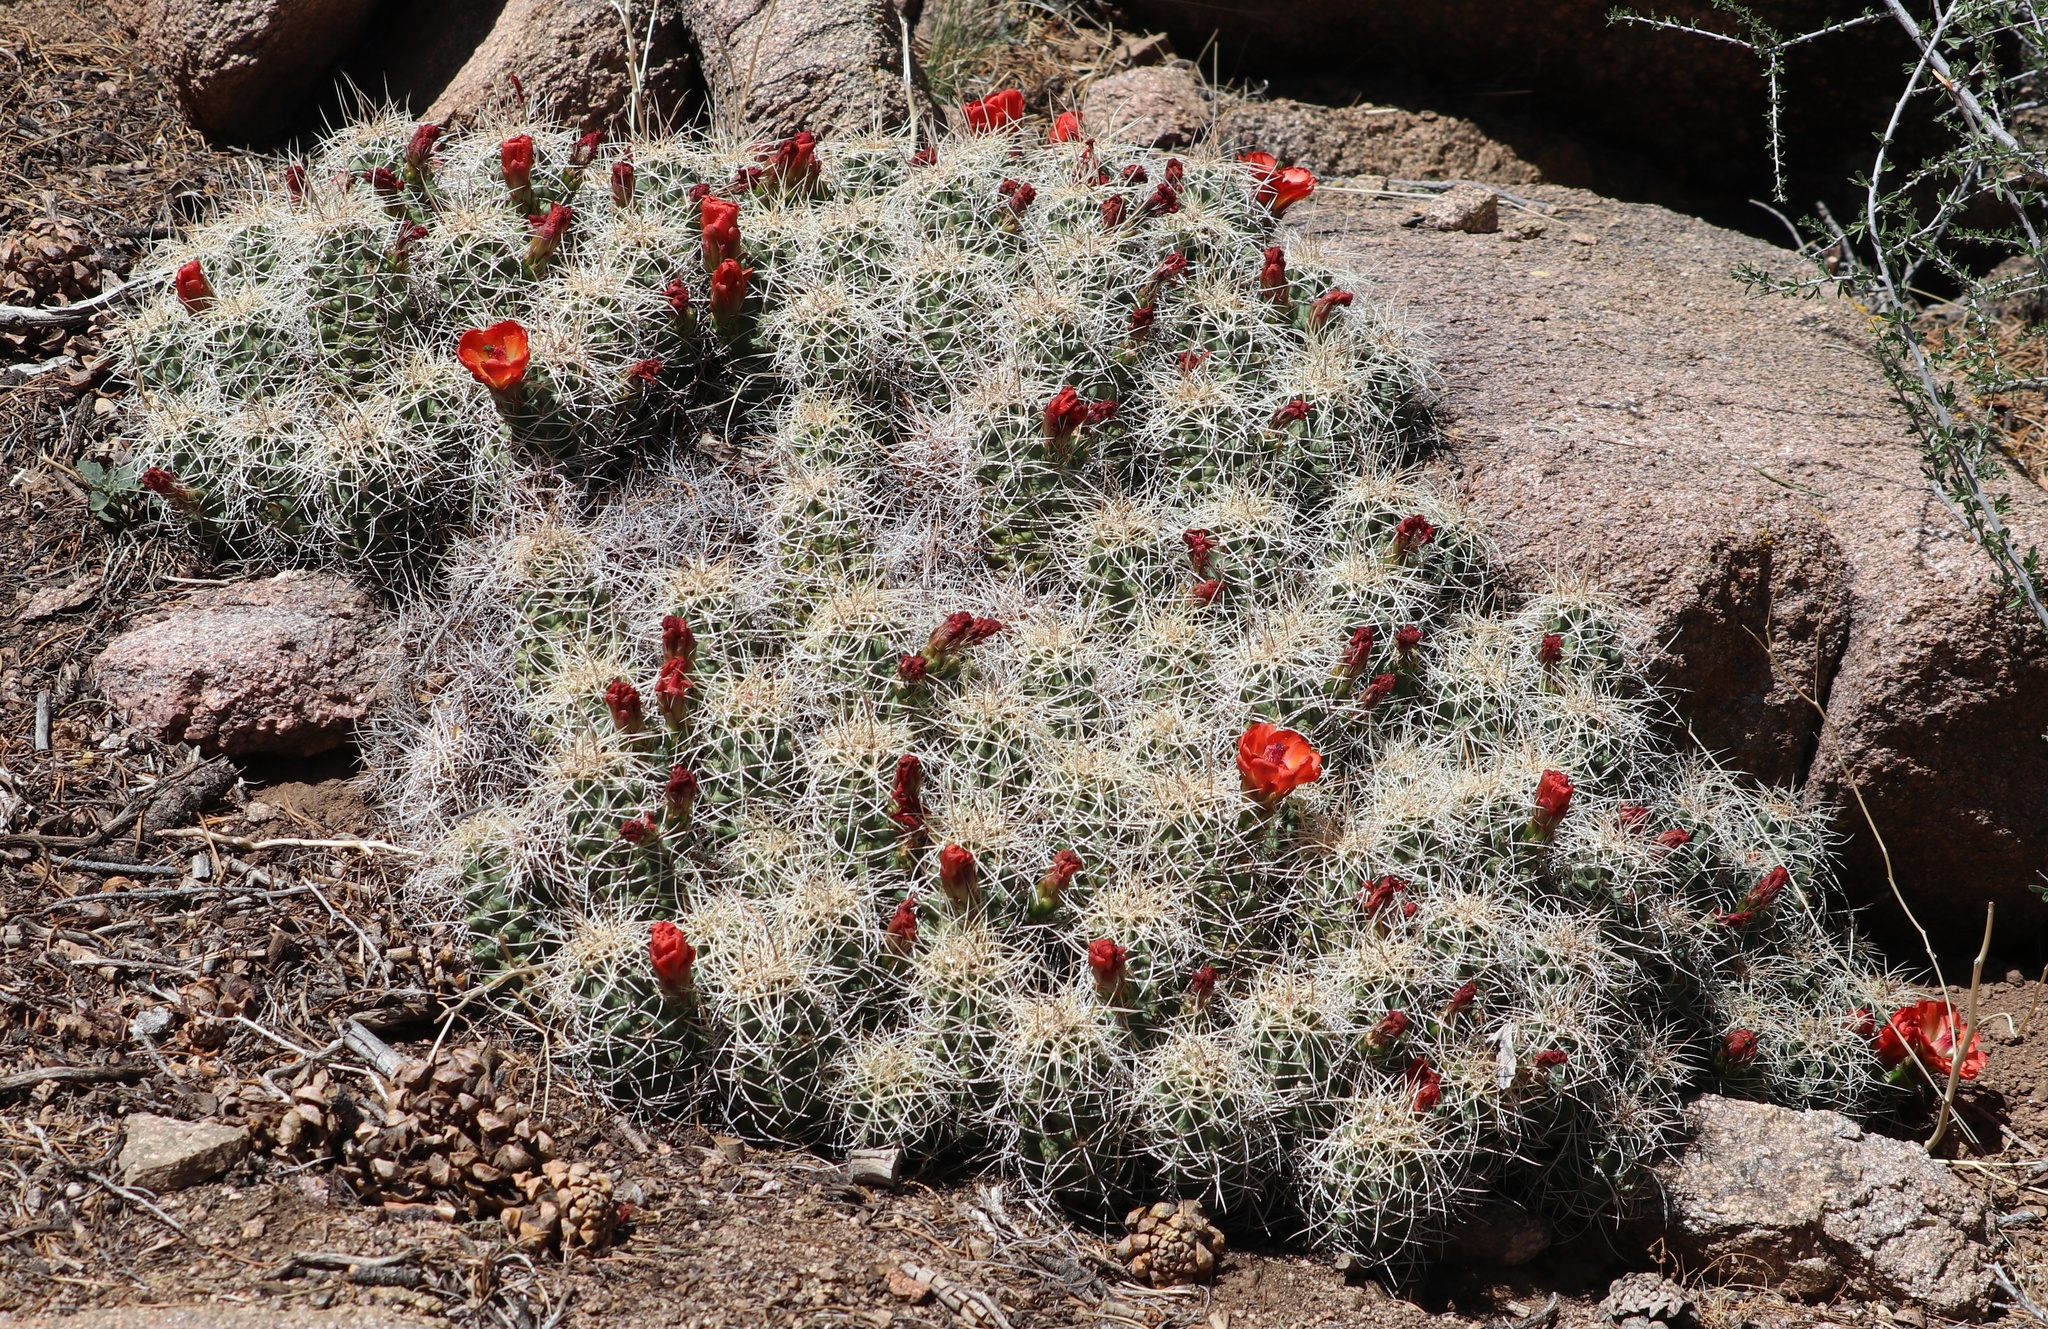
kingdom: Plantae
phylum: Tracheophyta
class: Magnoliopsida
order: Caryophyllales
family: Cactaceae
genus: Echinocereus
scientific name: Echinocereus triglochidiatus
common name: Claretcup hedgehog
